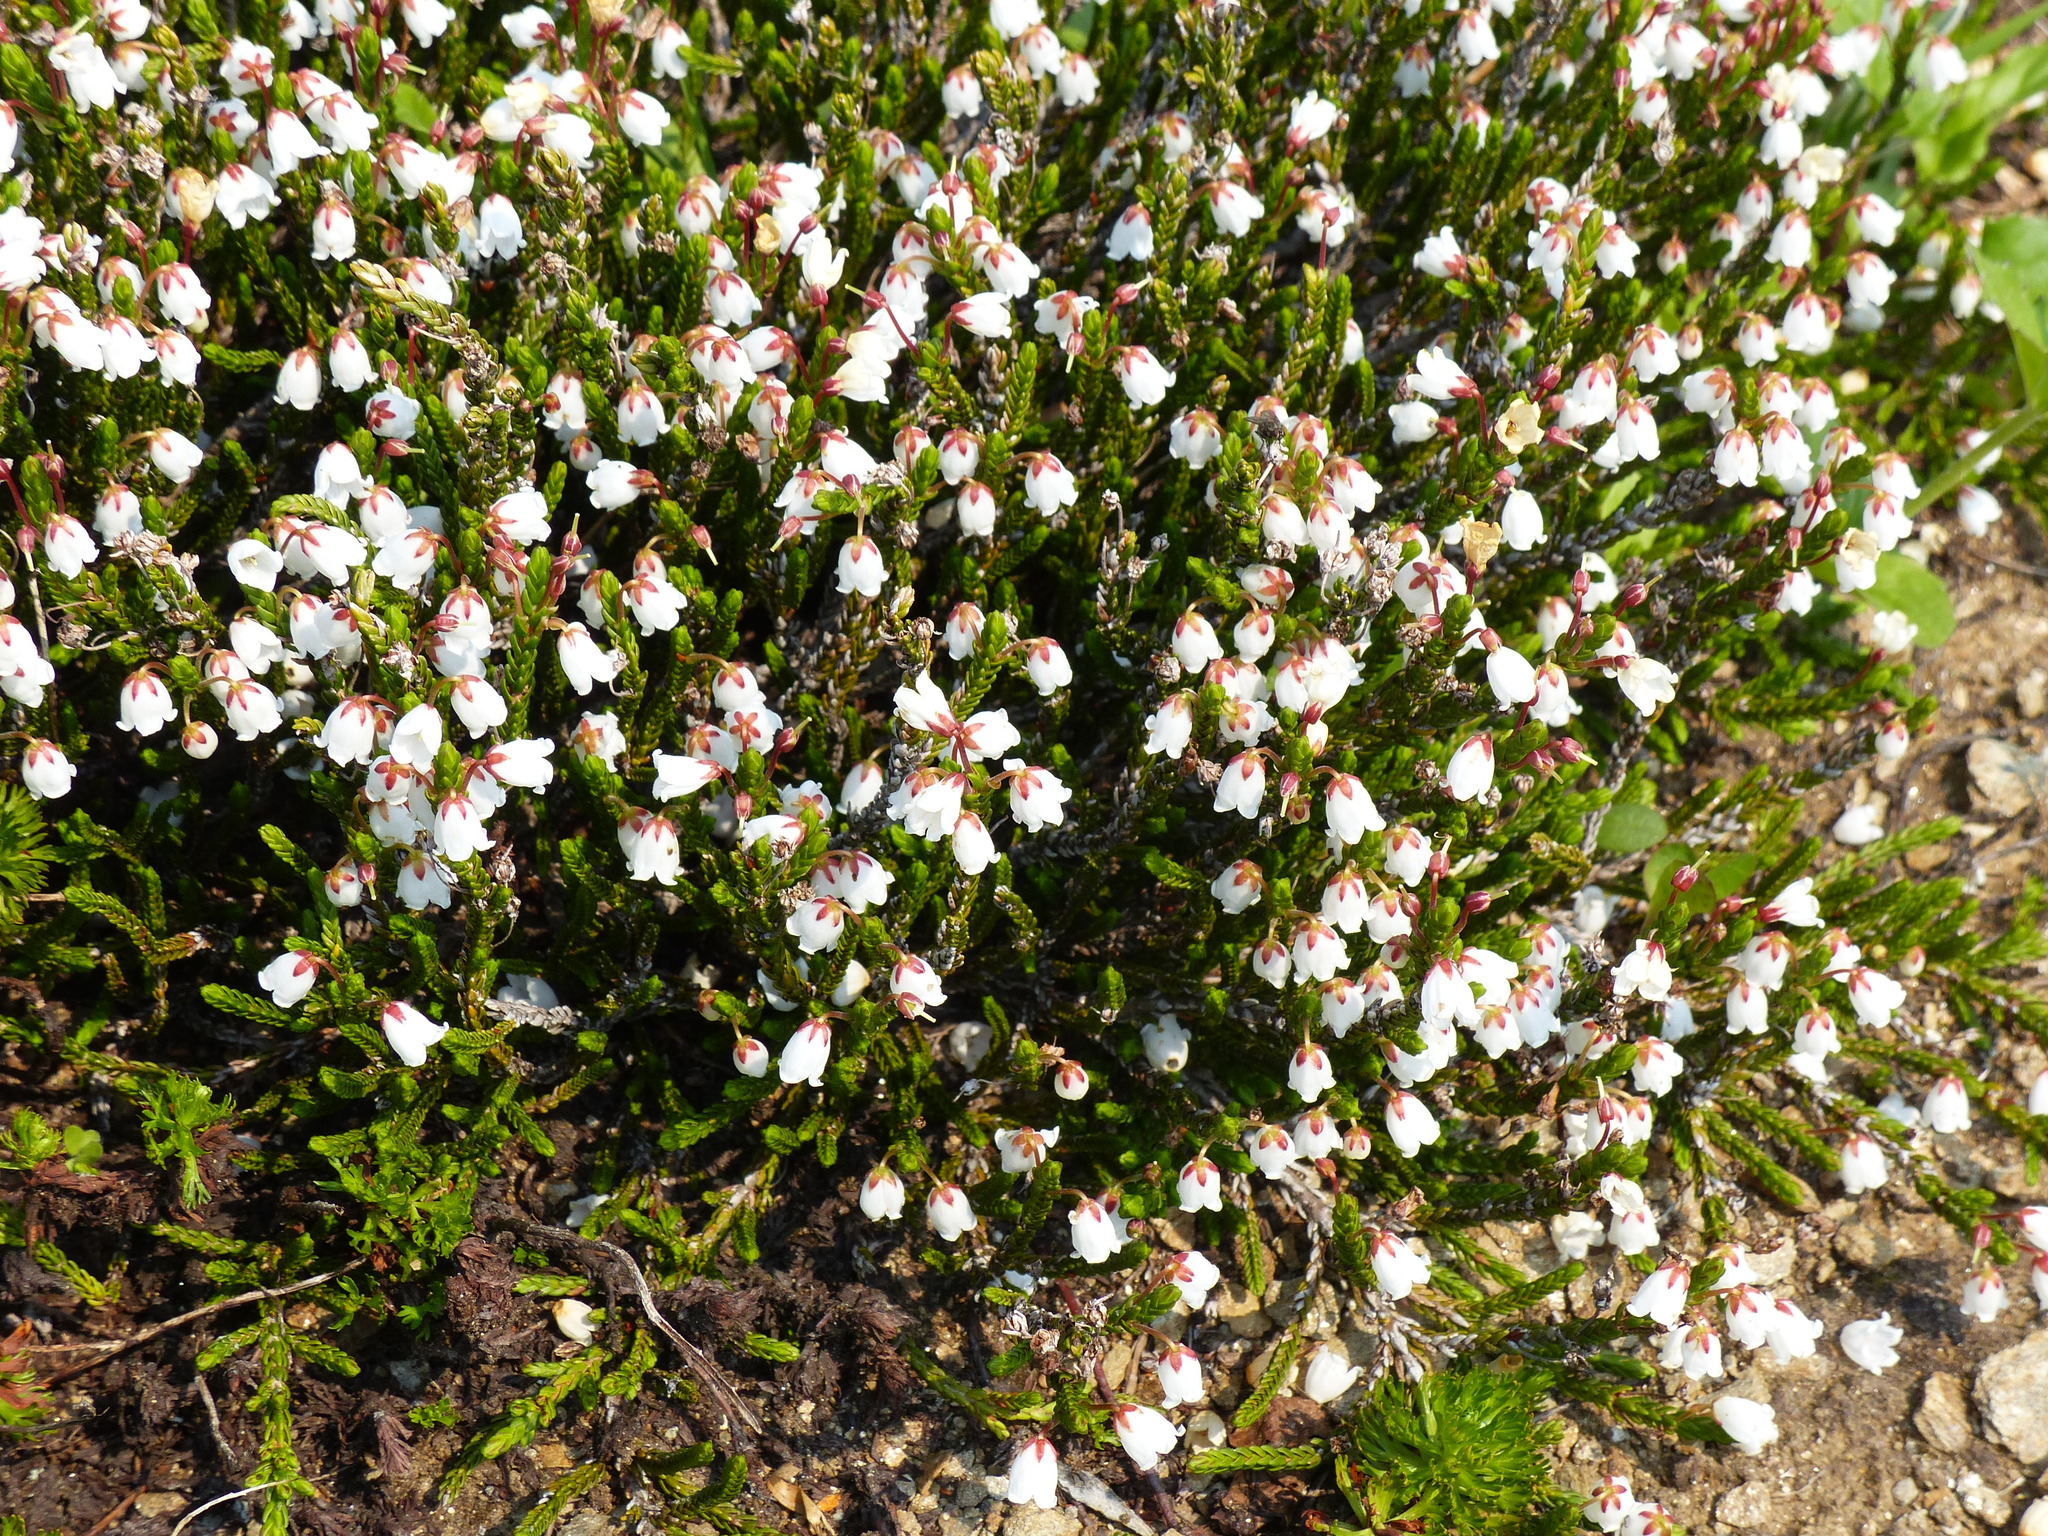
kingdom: Plantae
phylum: Tracheophyta
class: Magnoliopsida
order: Ericales
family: Ericaceae
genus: Cassiope
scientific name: Cassiope mertensiana
